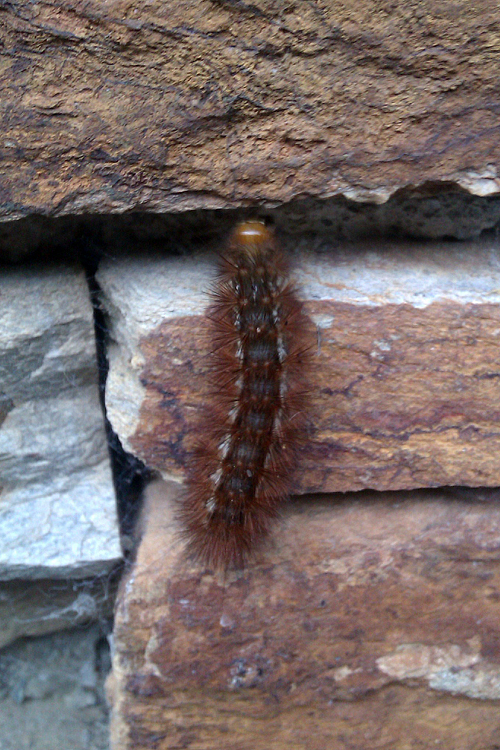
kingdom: Animalia
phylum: Arthropoda
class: Insecta
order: Lepidoptera
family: Erebidae
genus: Spilarctia
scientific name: Spilarctia lutea
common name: Buff ermine
